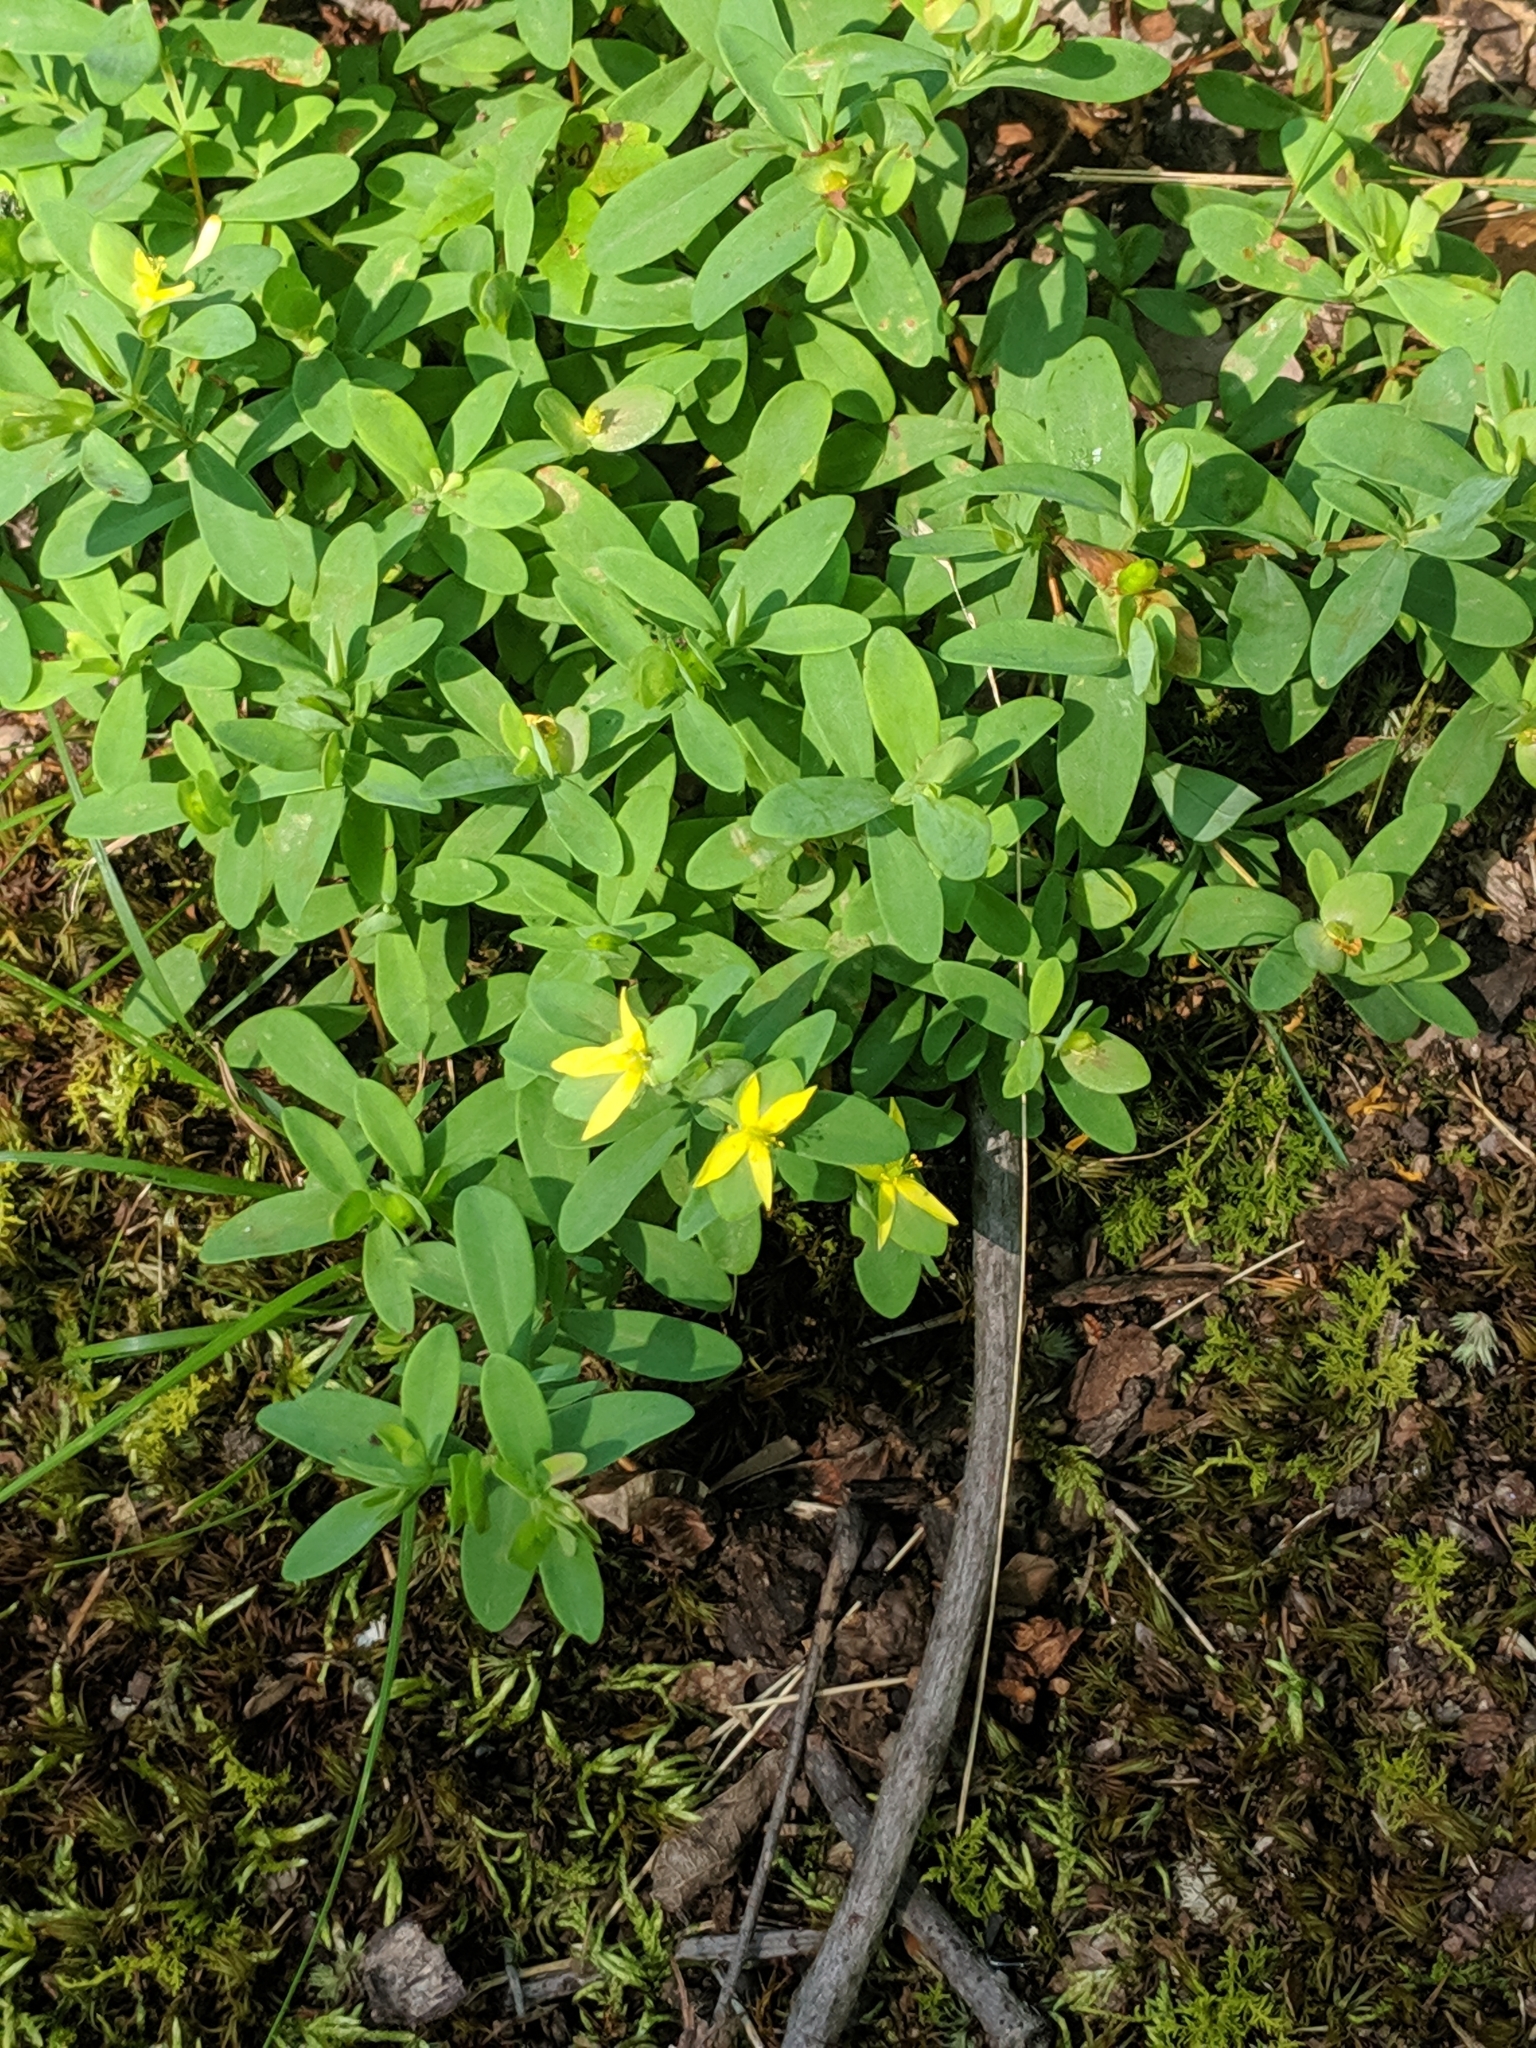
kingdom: Plantae
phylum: Tracheophyta
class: Magnoliopsida
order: Malpighiales
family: Hypericaceae
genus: Hypericum
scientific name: Hypericum hypericoides
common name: St. andrew's cross
